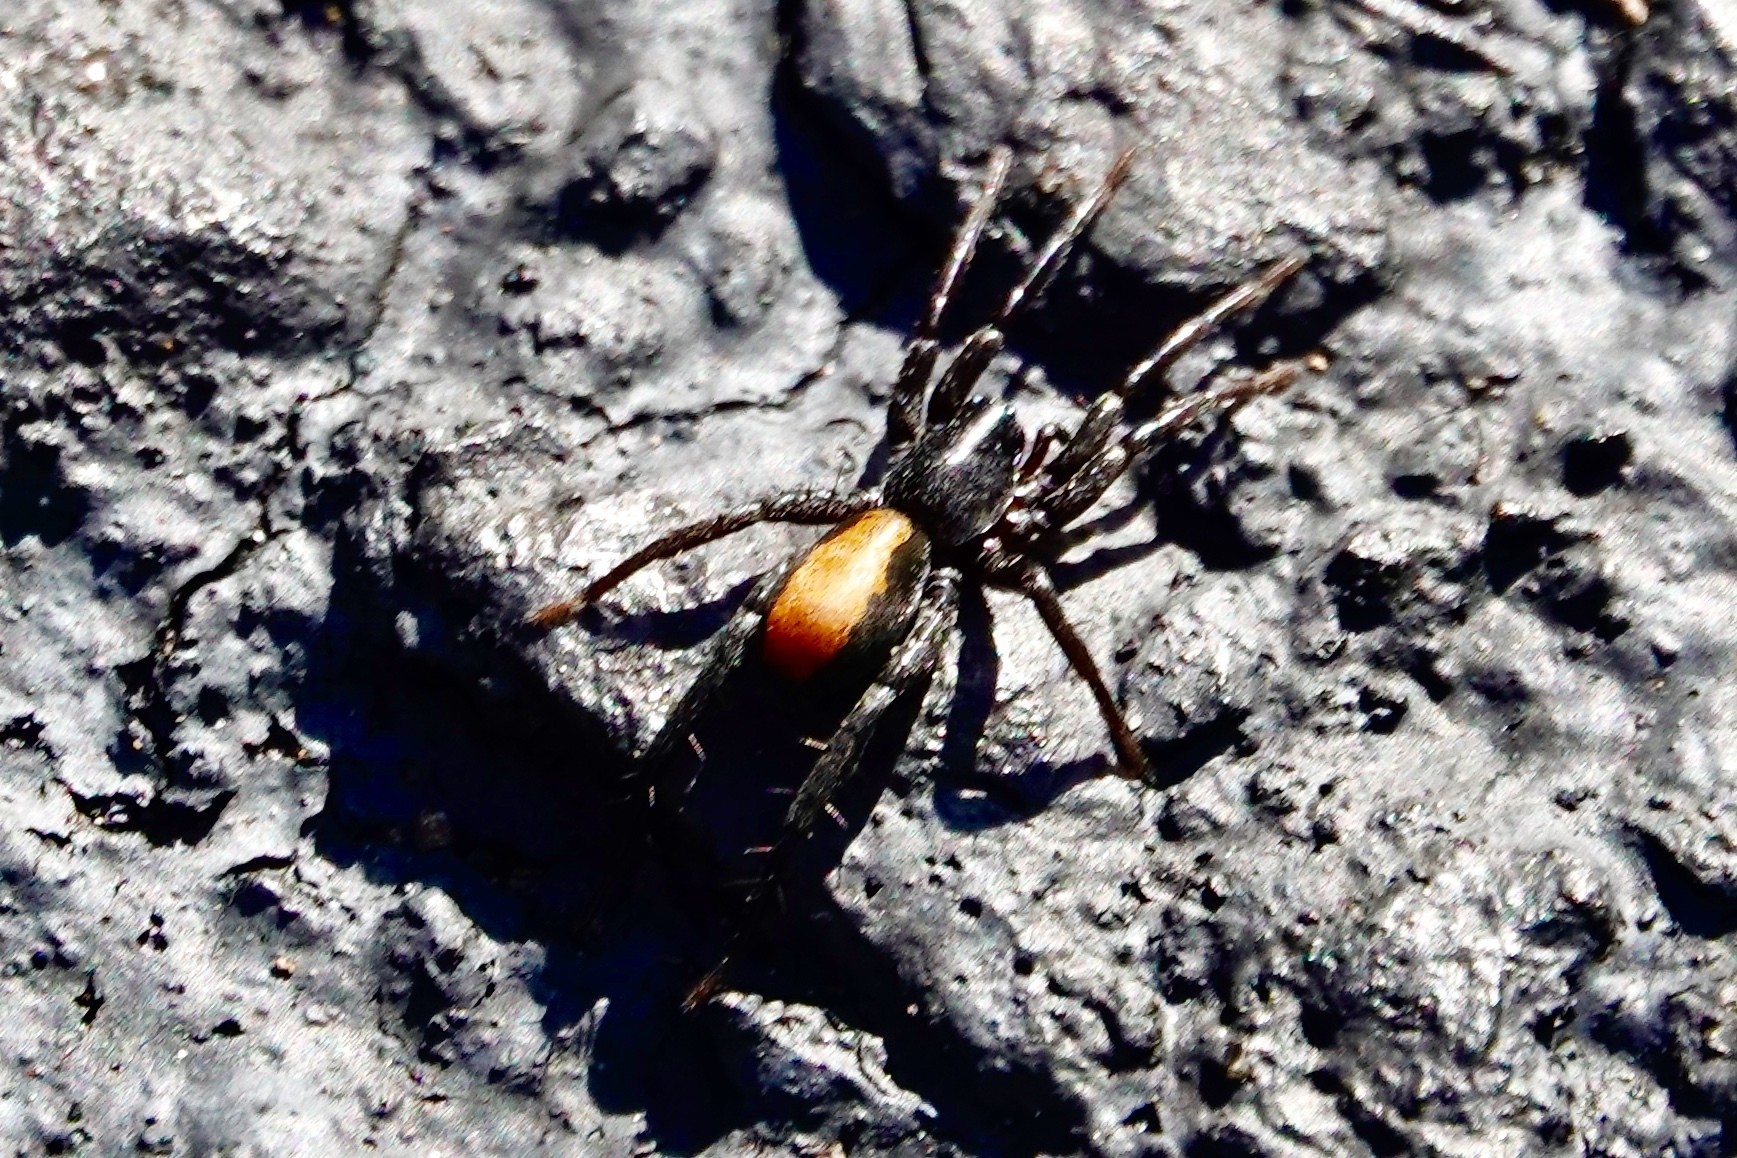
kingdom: Animalia
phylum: Arthropoda
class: Arachnida
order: Araneae
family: Corinnidae
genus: Castianeira
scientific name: Castianeira descripta
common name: Red-spotted ant-mimic sac spider
